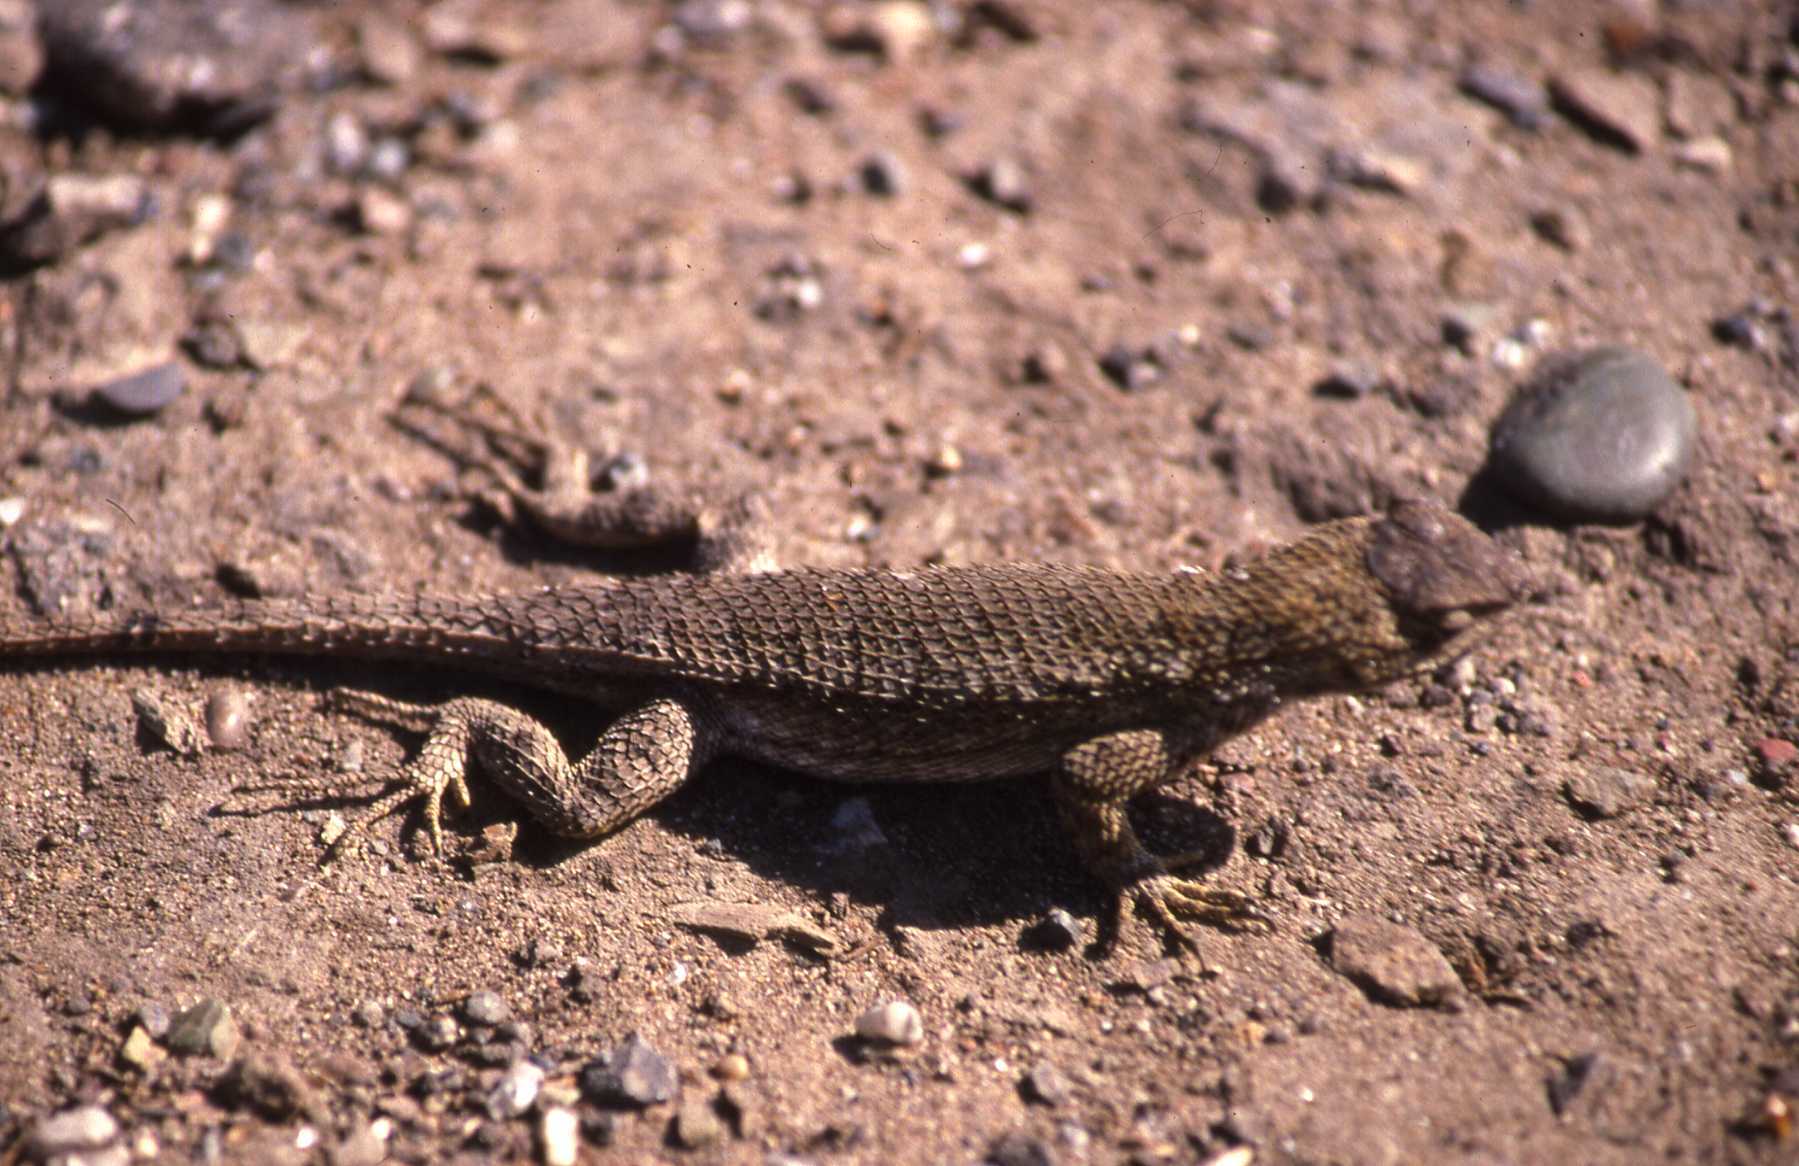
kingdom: Animalia
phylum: Chordata
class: Squamata
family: Phrynosomatidae
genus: Sceloporus
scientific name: Sceloporus occidentalis
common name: Western fence lizard
